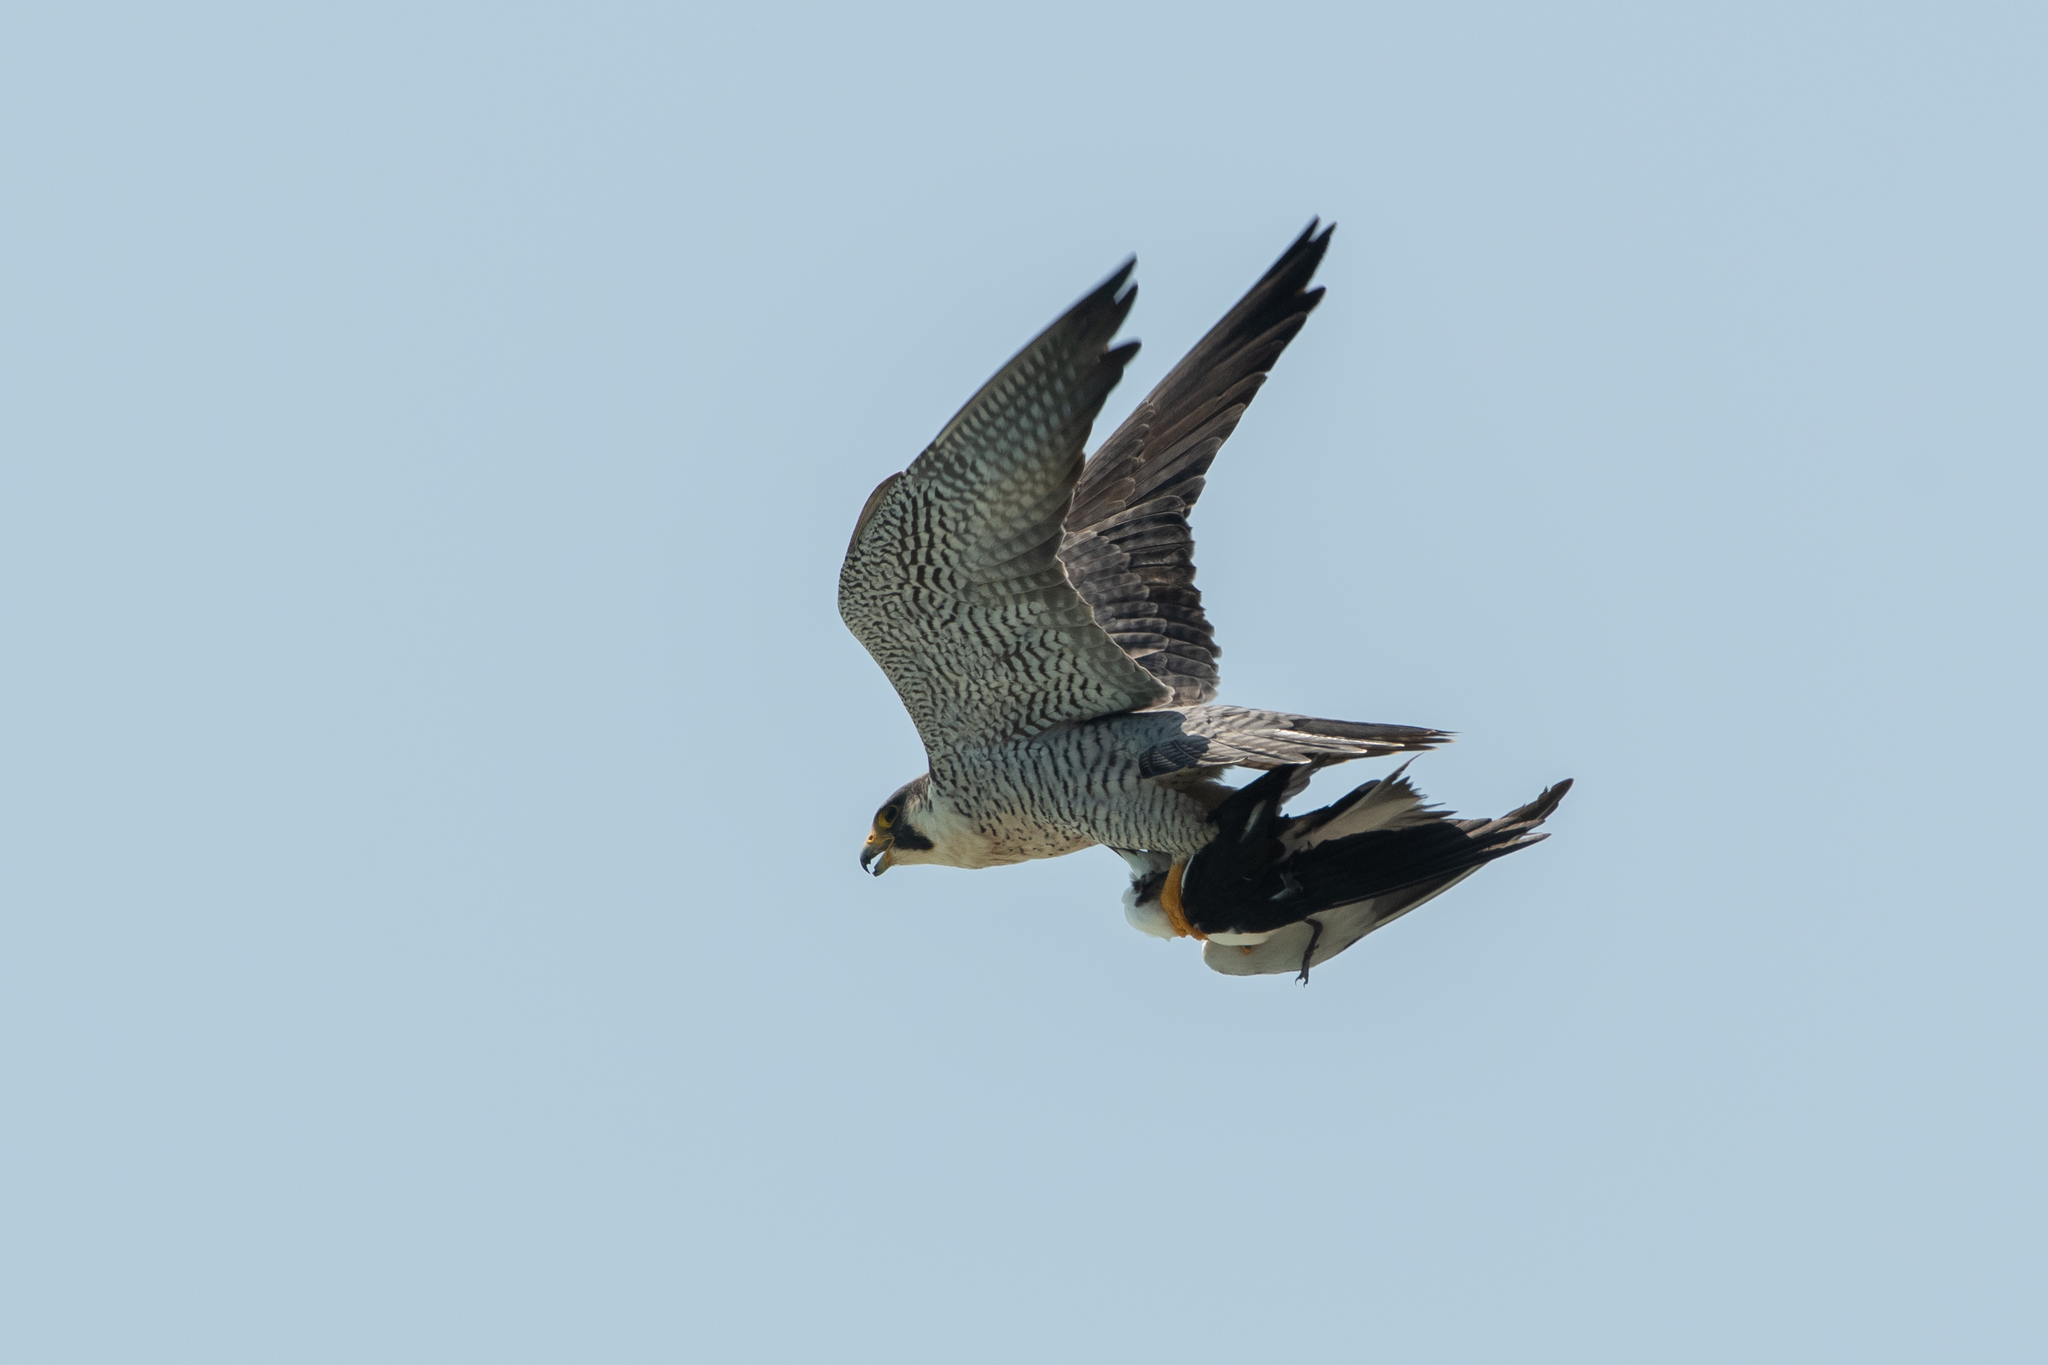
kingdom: Animalia
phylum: Chordata
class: Aves
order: Falconiformes
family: Falconidae
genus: Falco
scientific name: Falco peregrinus
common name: Peregrine falcon
